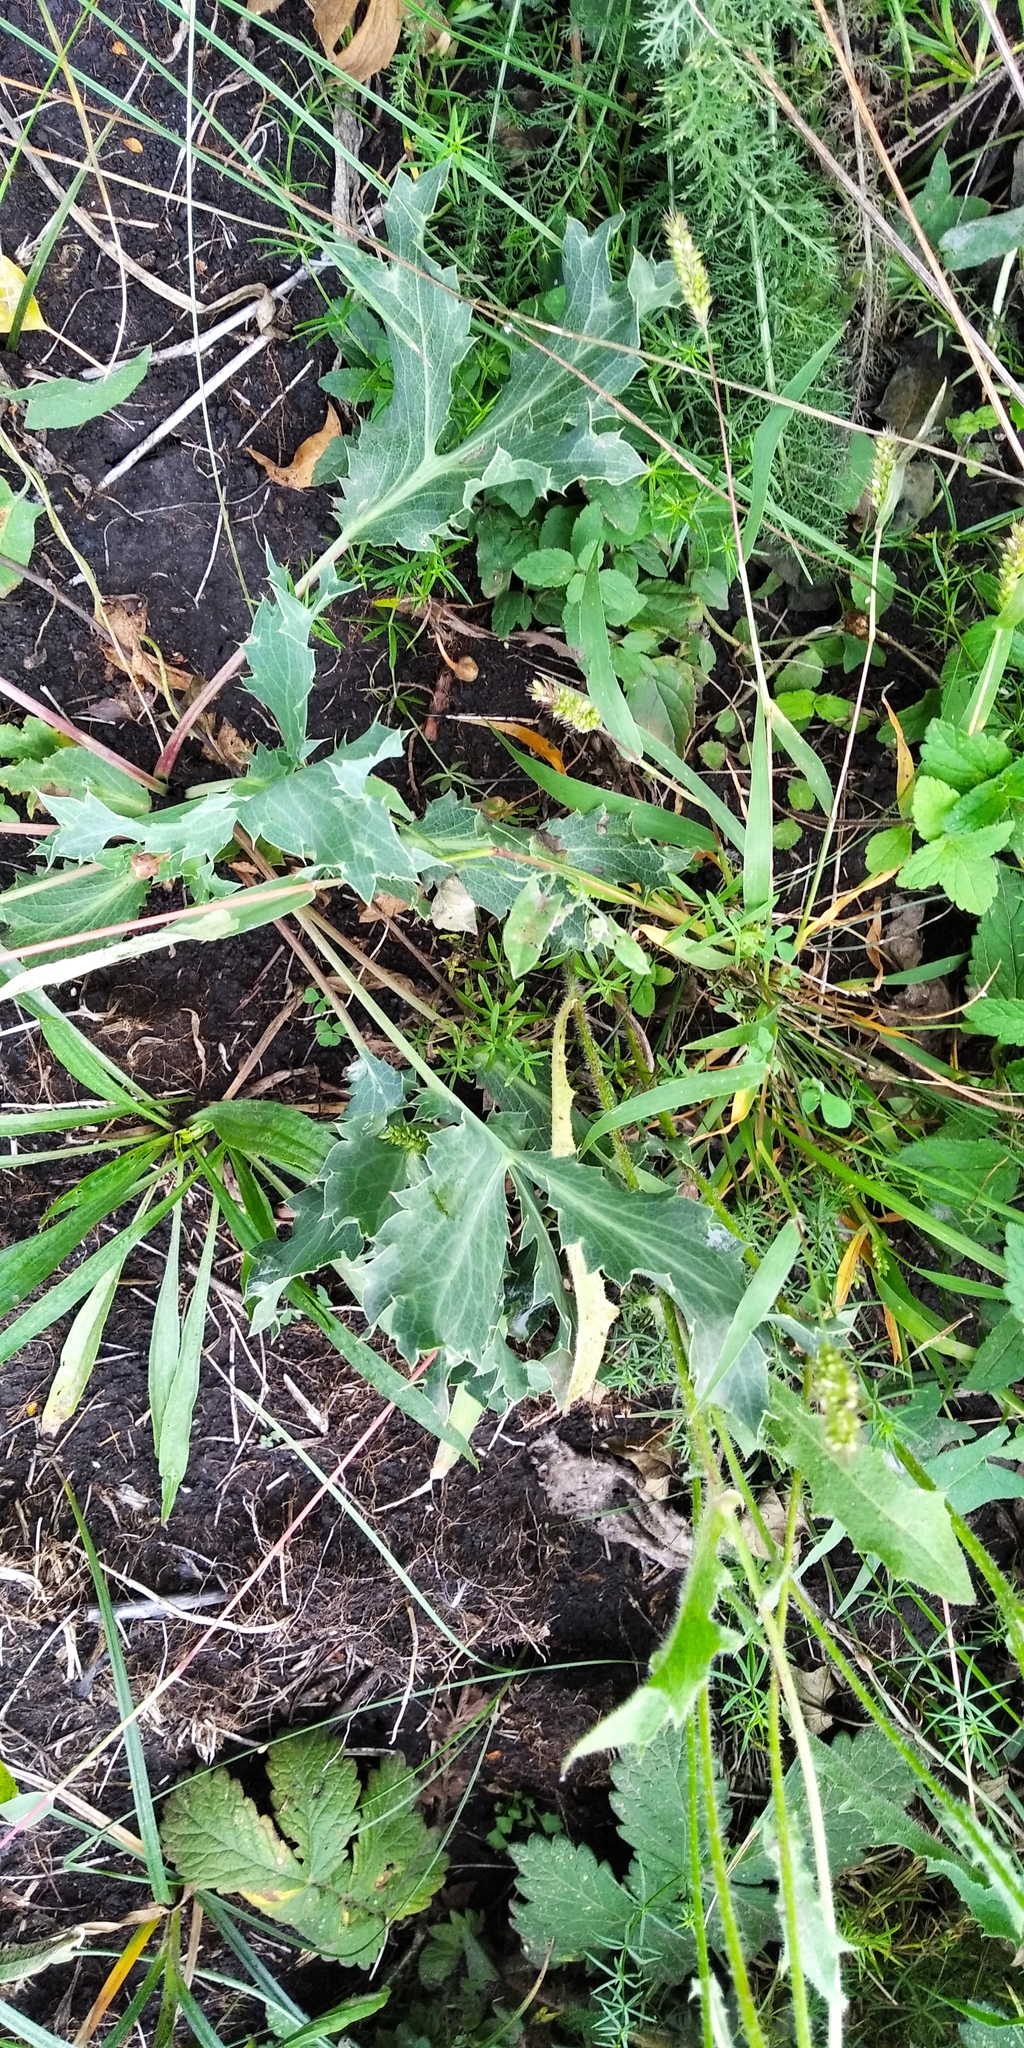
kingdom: Plantae
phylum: Tracheophyta
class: Magnoliopsida
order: Apiales
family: Apiaceae
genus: Eryngium
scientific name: Eryngium campestre
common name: Field eryngo
